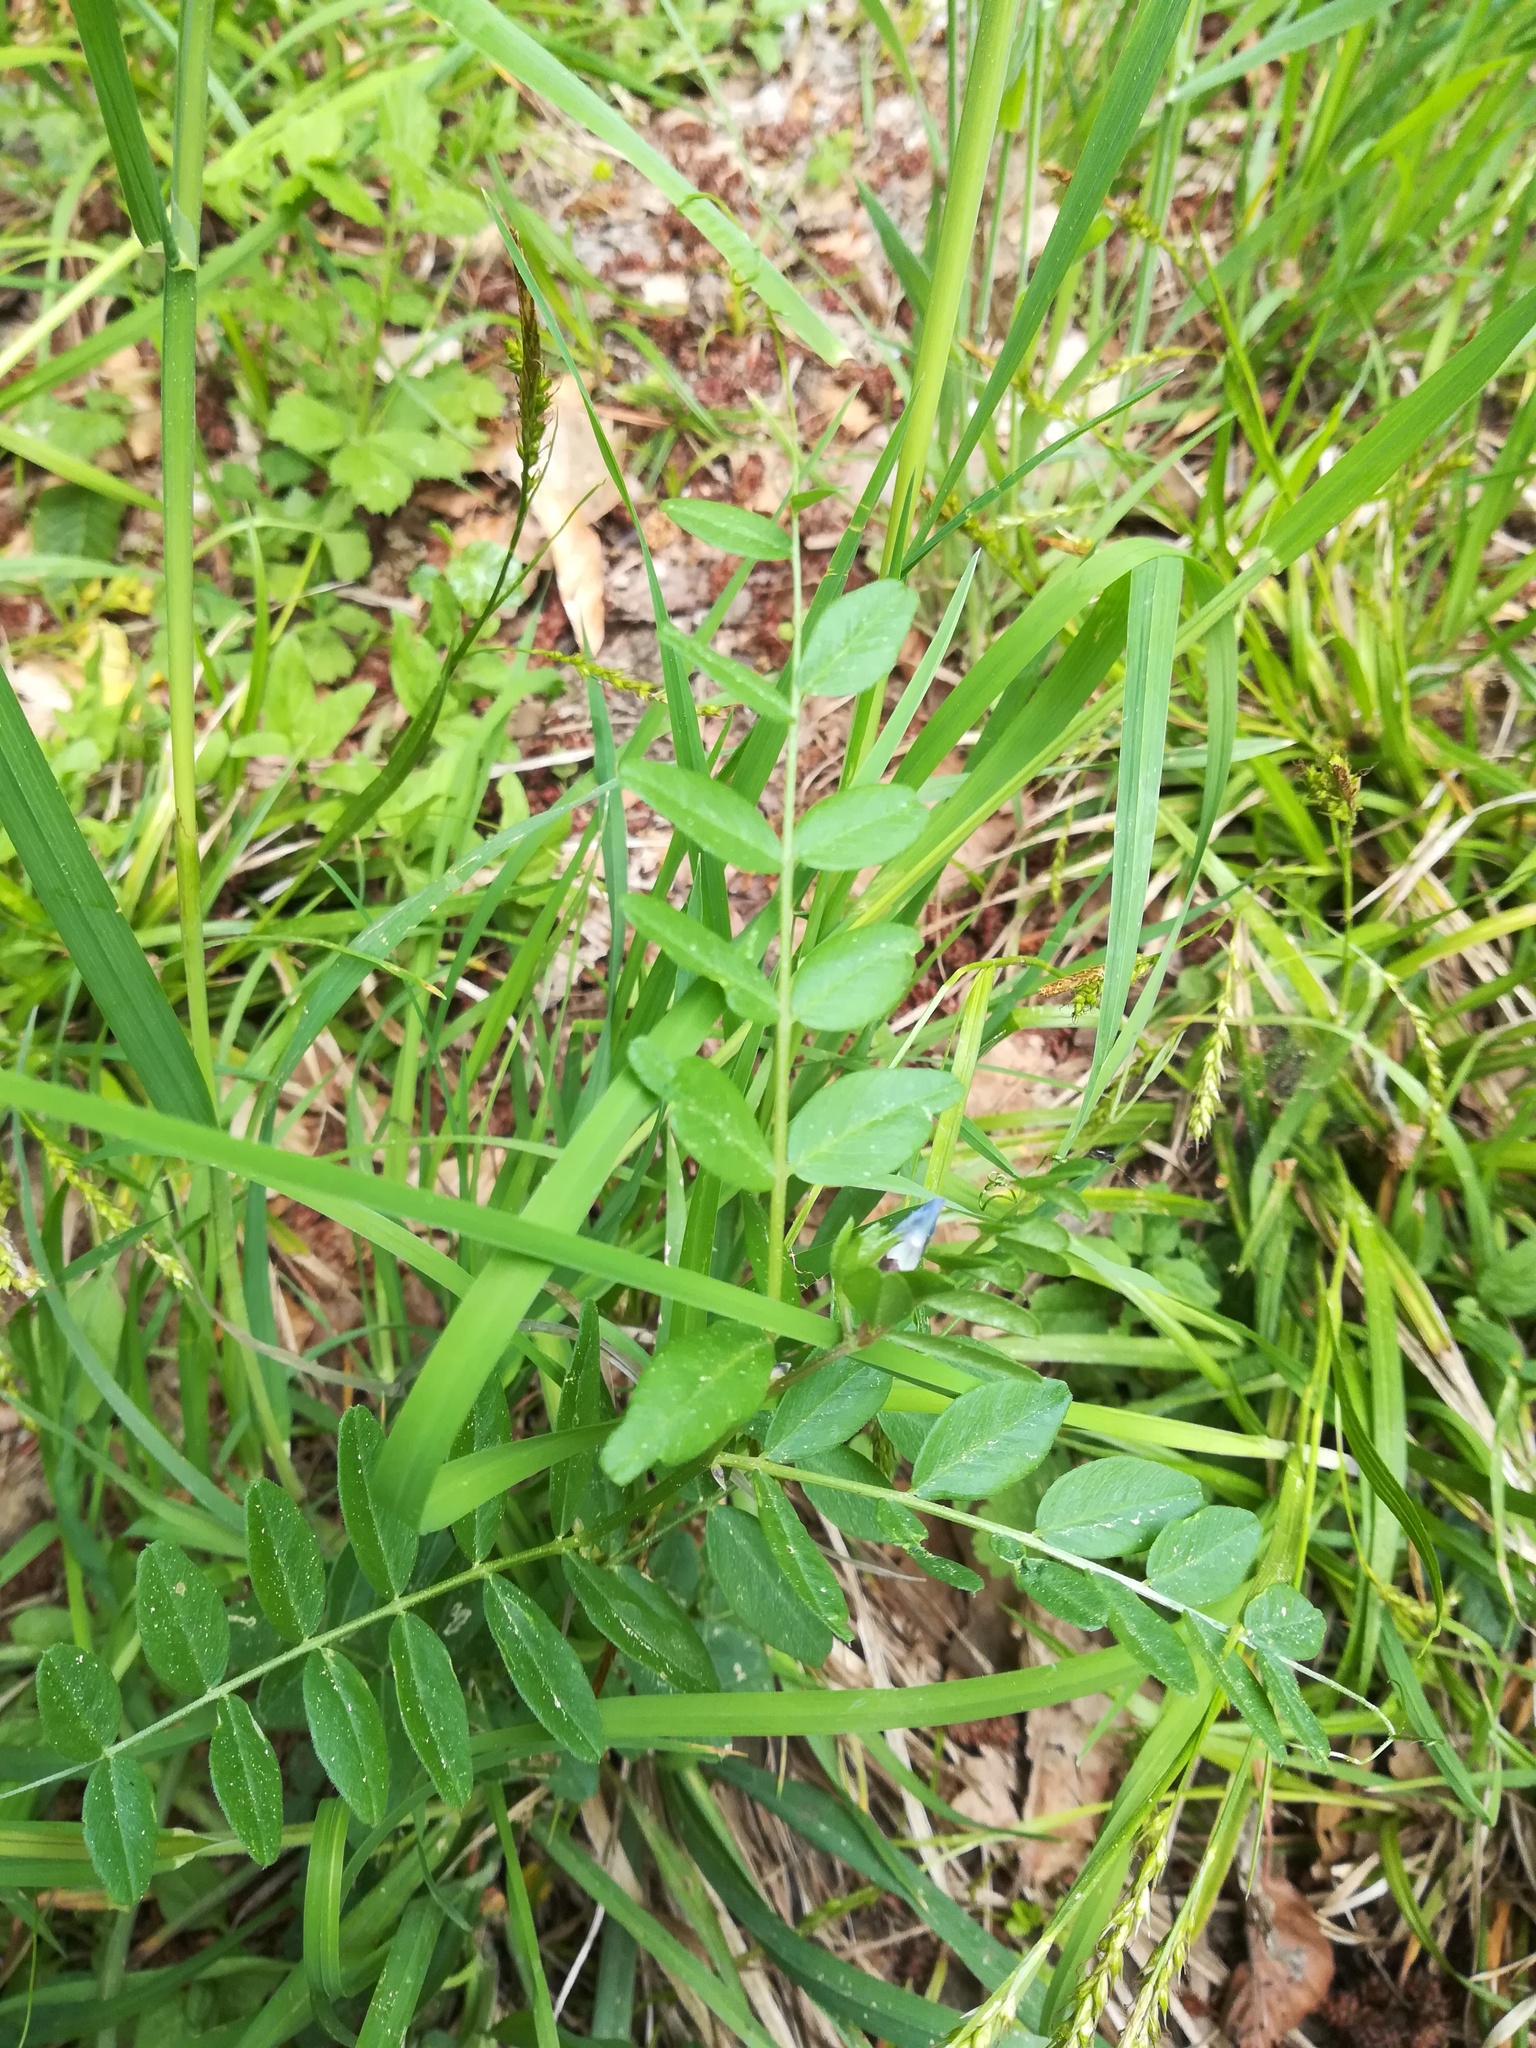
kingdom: Plantae
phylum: Tracheophyta
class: Magnoliopsida
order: Fabales
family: Fabaceae
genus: Vicia
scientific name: Vicia sepium
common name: Bush vetch
